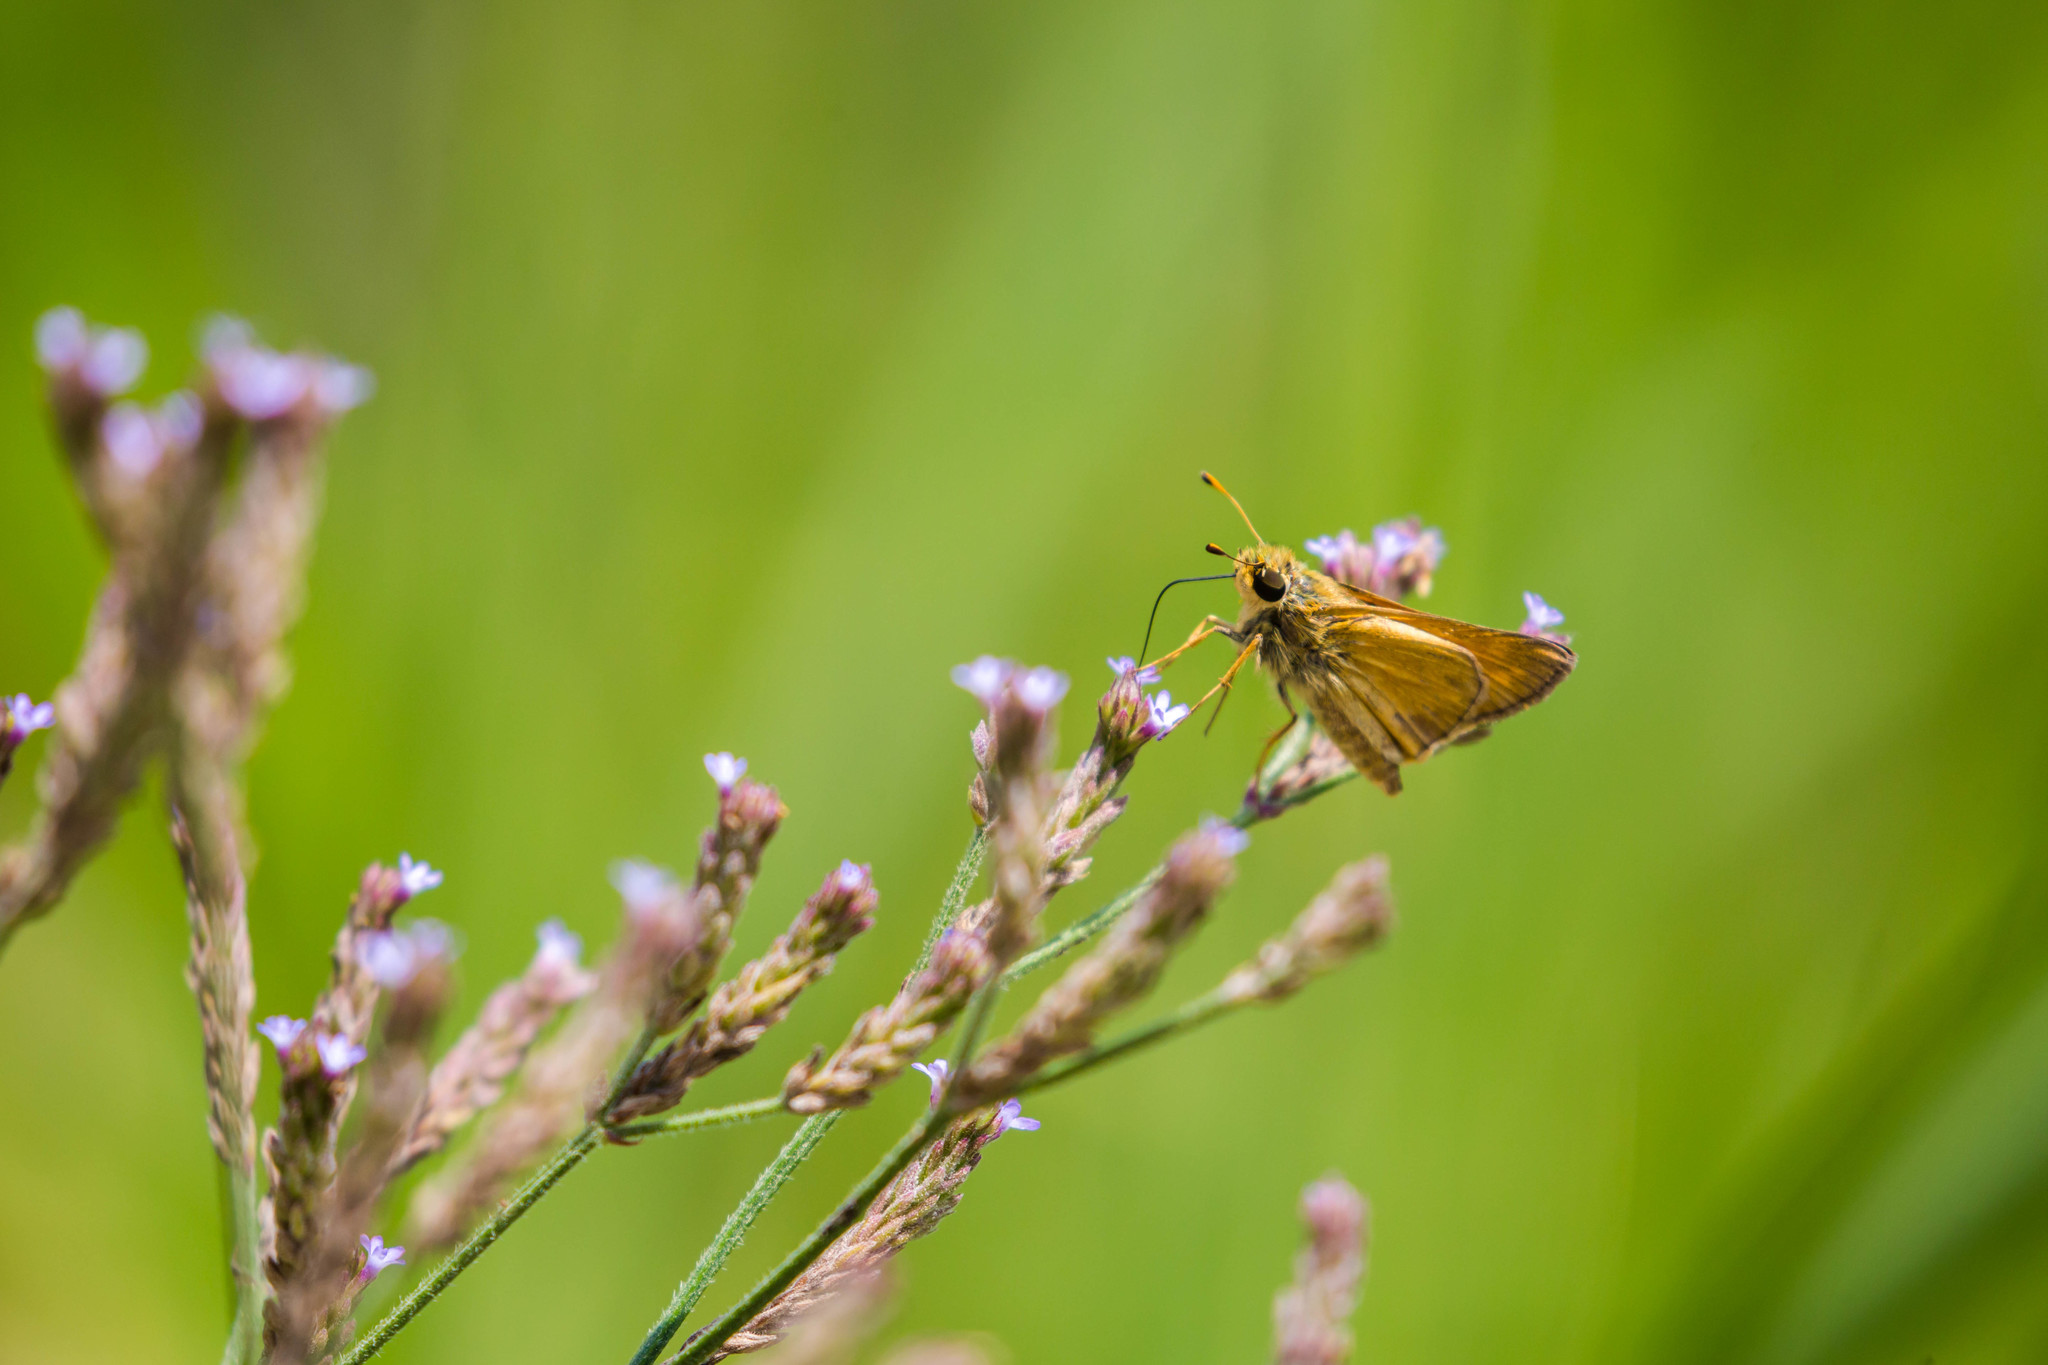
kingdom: Animalia
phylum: Arthropoda
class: Insecta
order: Lepidoptera
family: Hesperiidae
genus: Atalopedes
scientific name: Atalopedes
